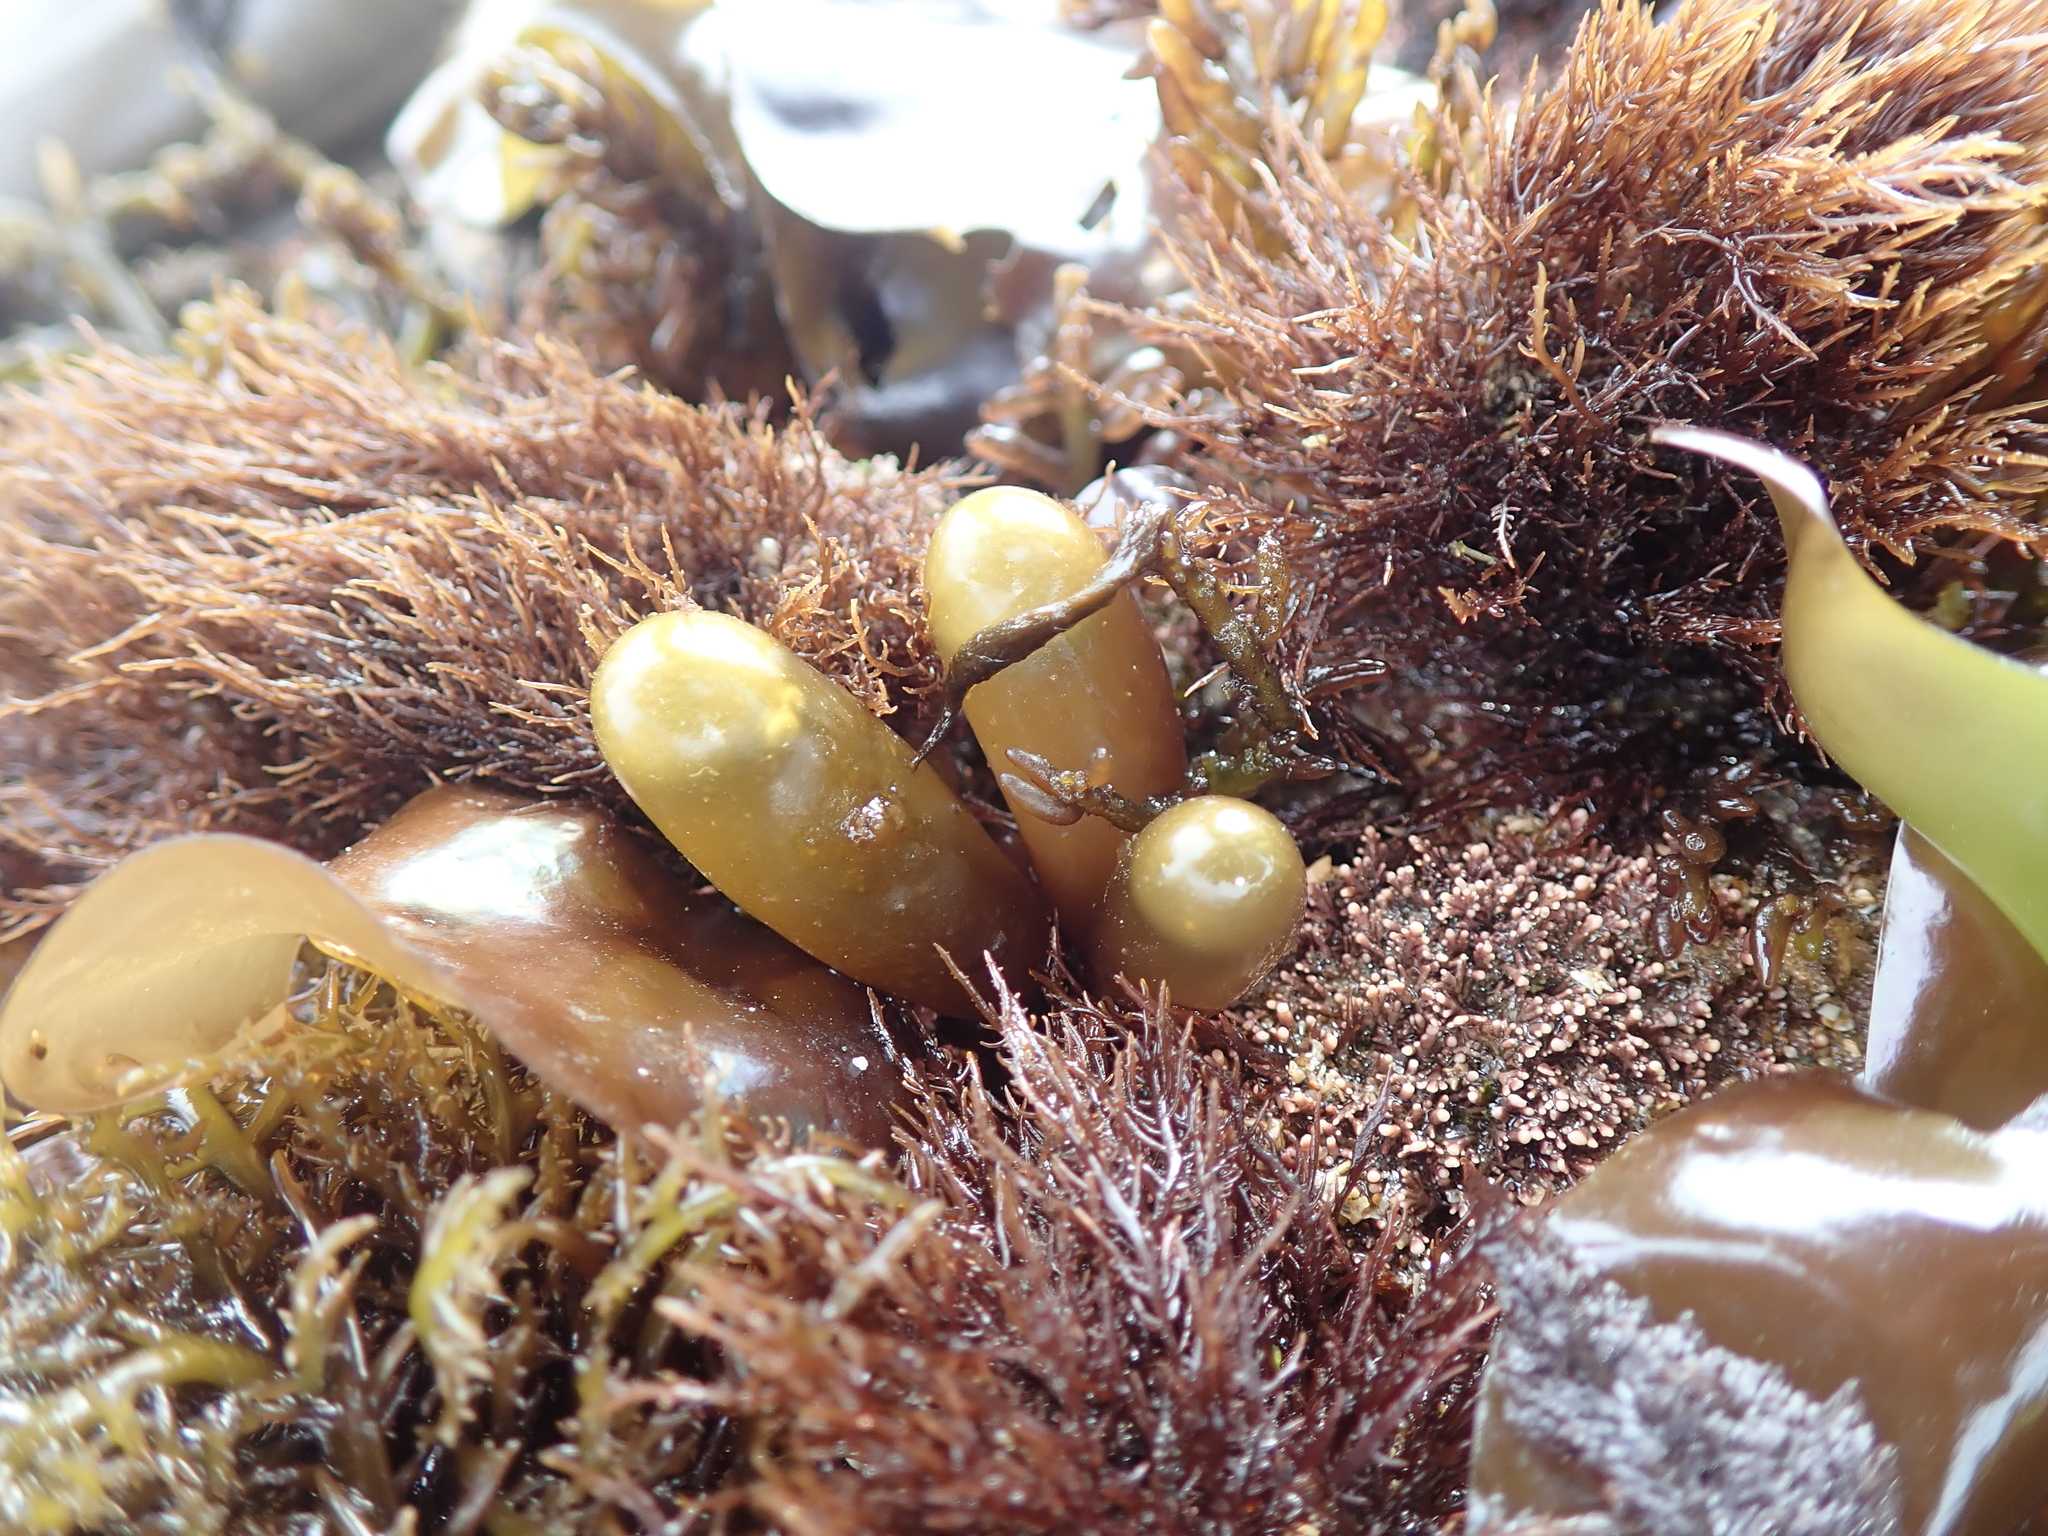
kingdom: Plantae
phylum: Rhodophyta
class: Florideophyceae
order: Palmariales
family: Palmariaceae
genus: Halosaccion
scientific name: Halosaccion glandiforme
